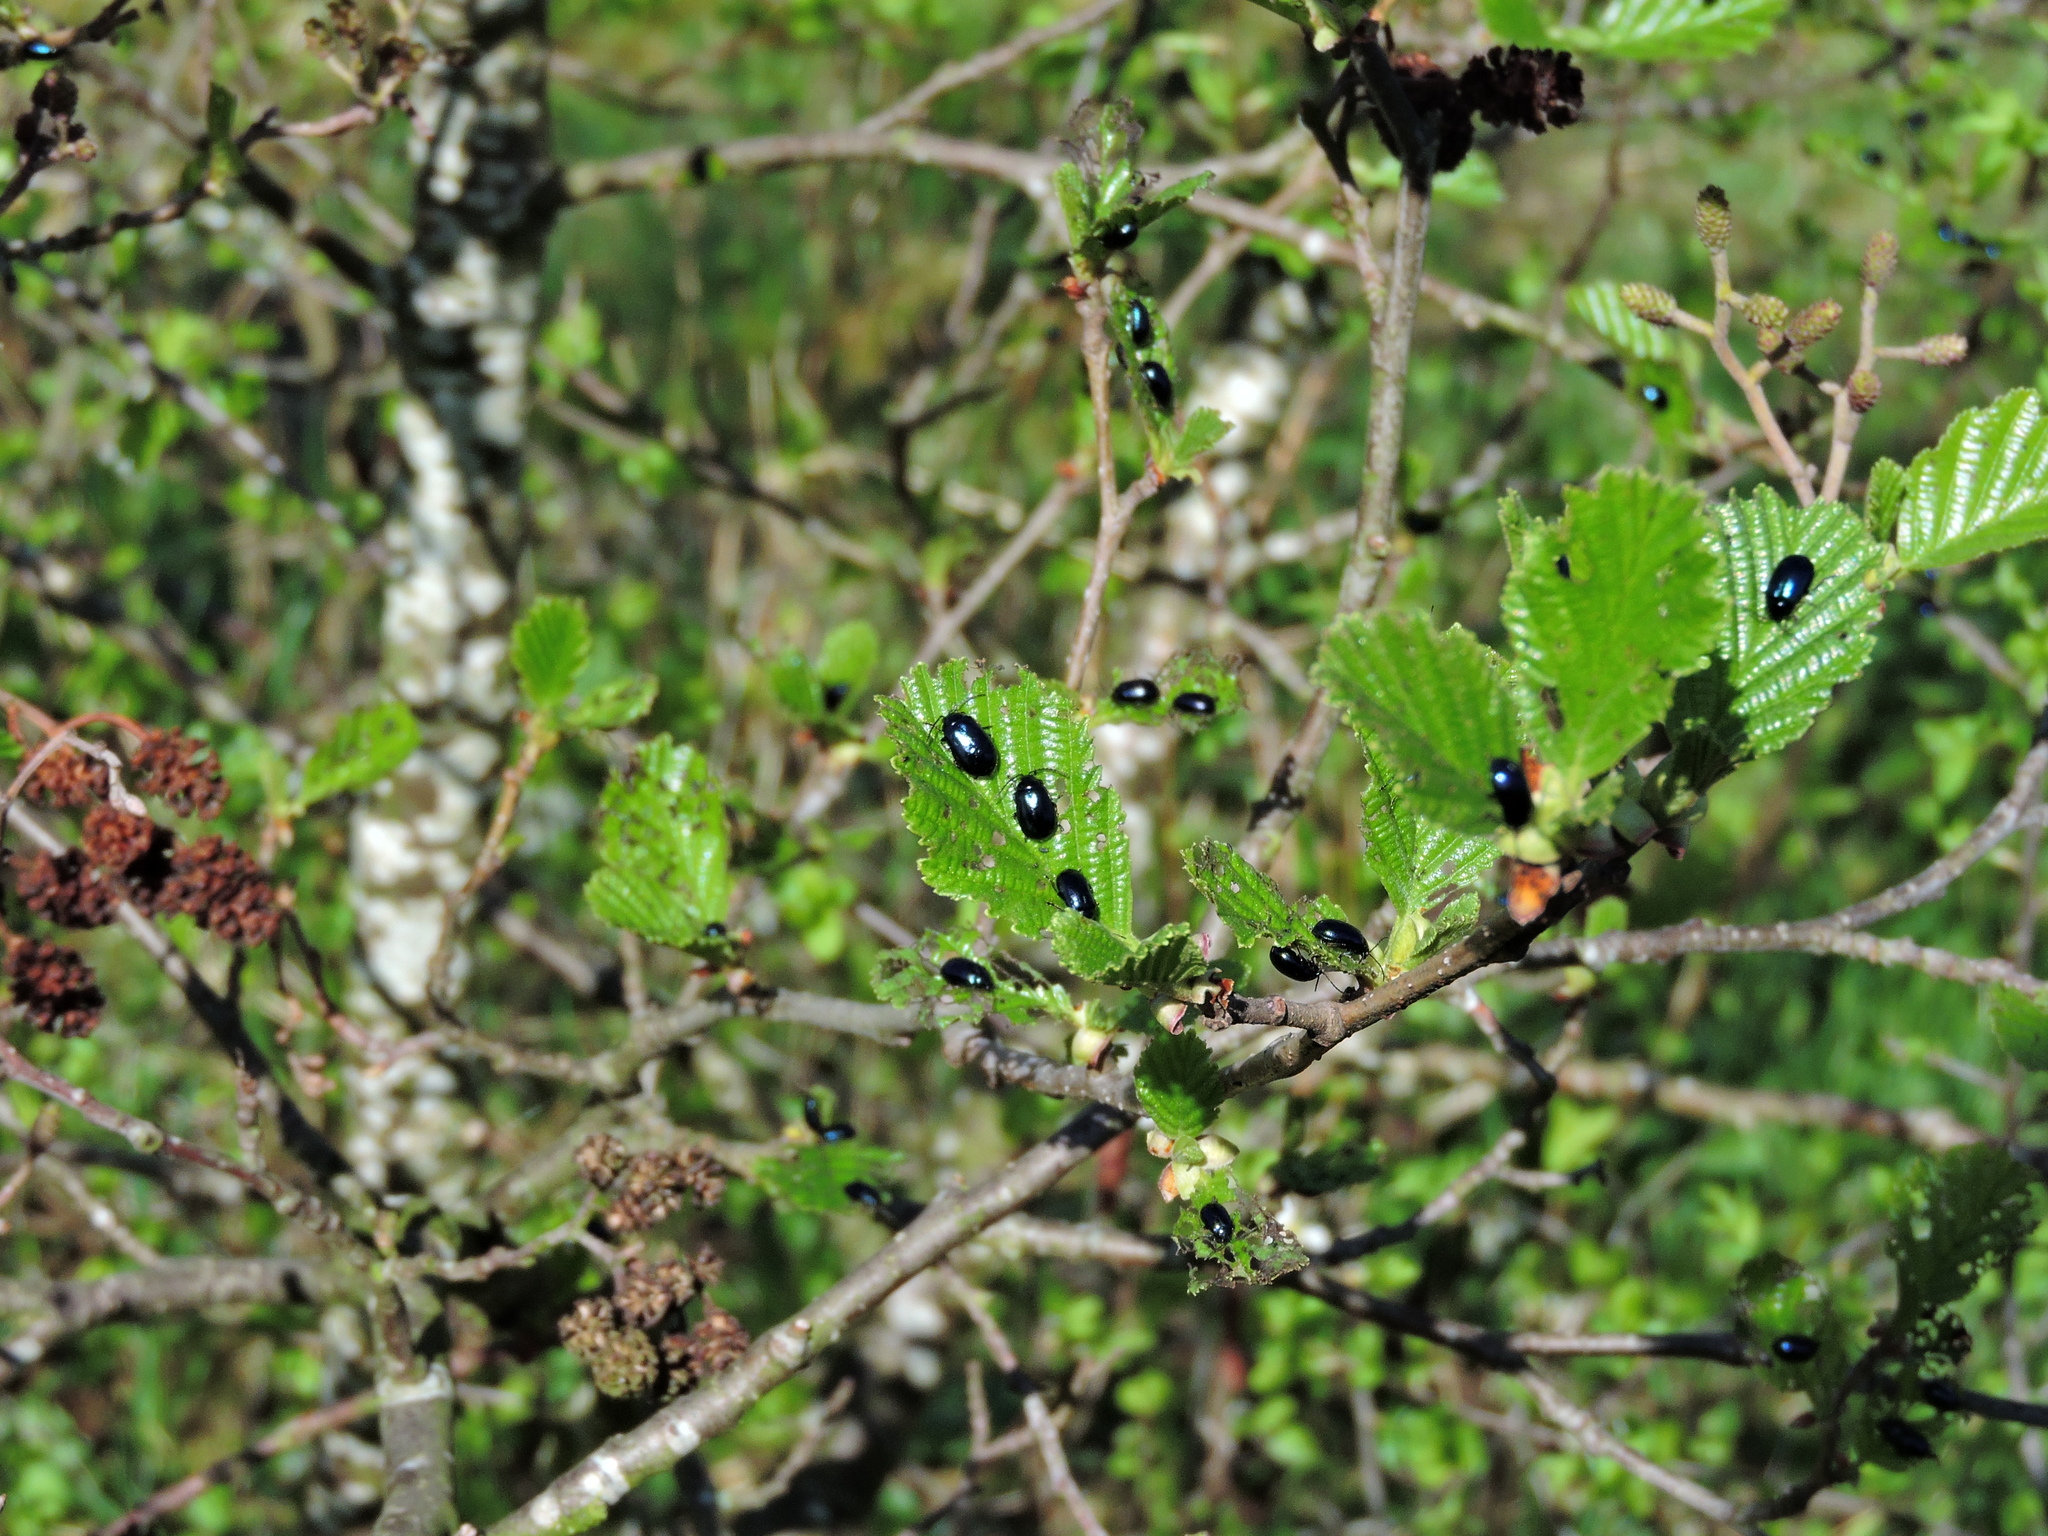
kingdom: Animalia
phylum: Arthropoda
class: Insecta
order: Coleoptera
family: Chrysomelidae
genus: Agelastica
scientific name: Agelastica alni
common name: Alder leaf beetle
